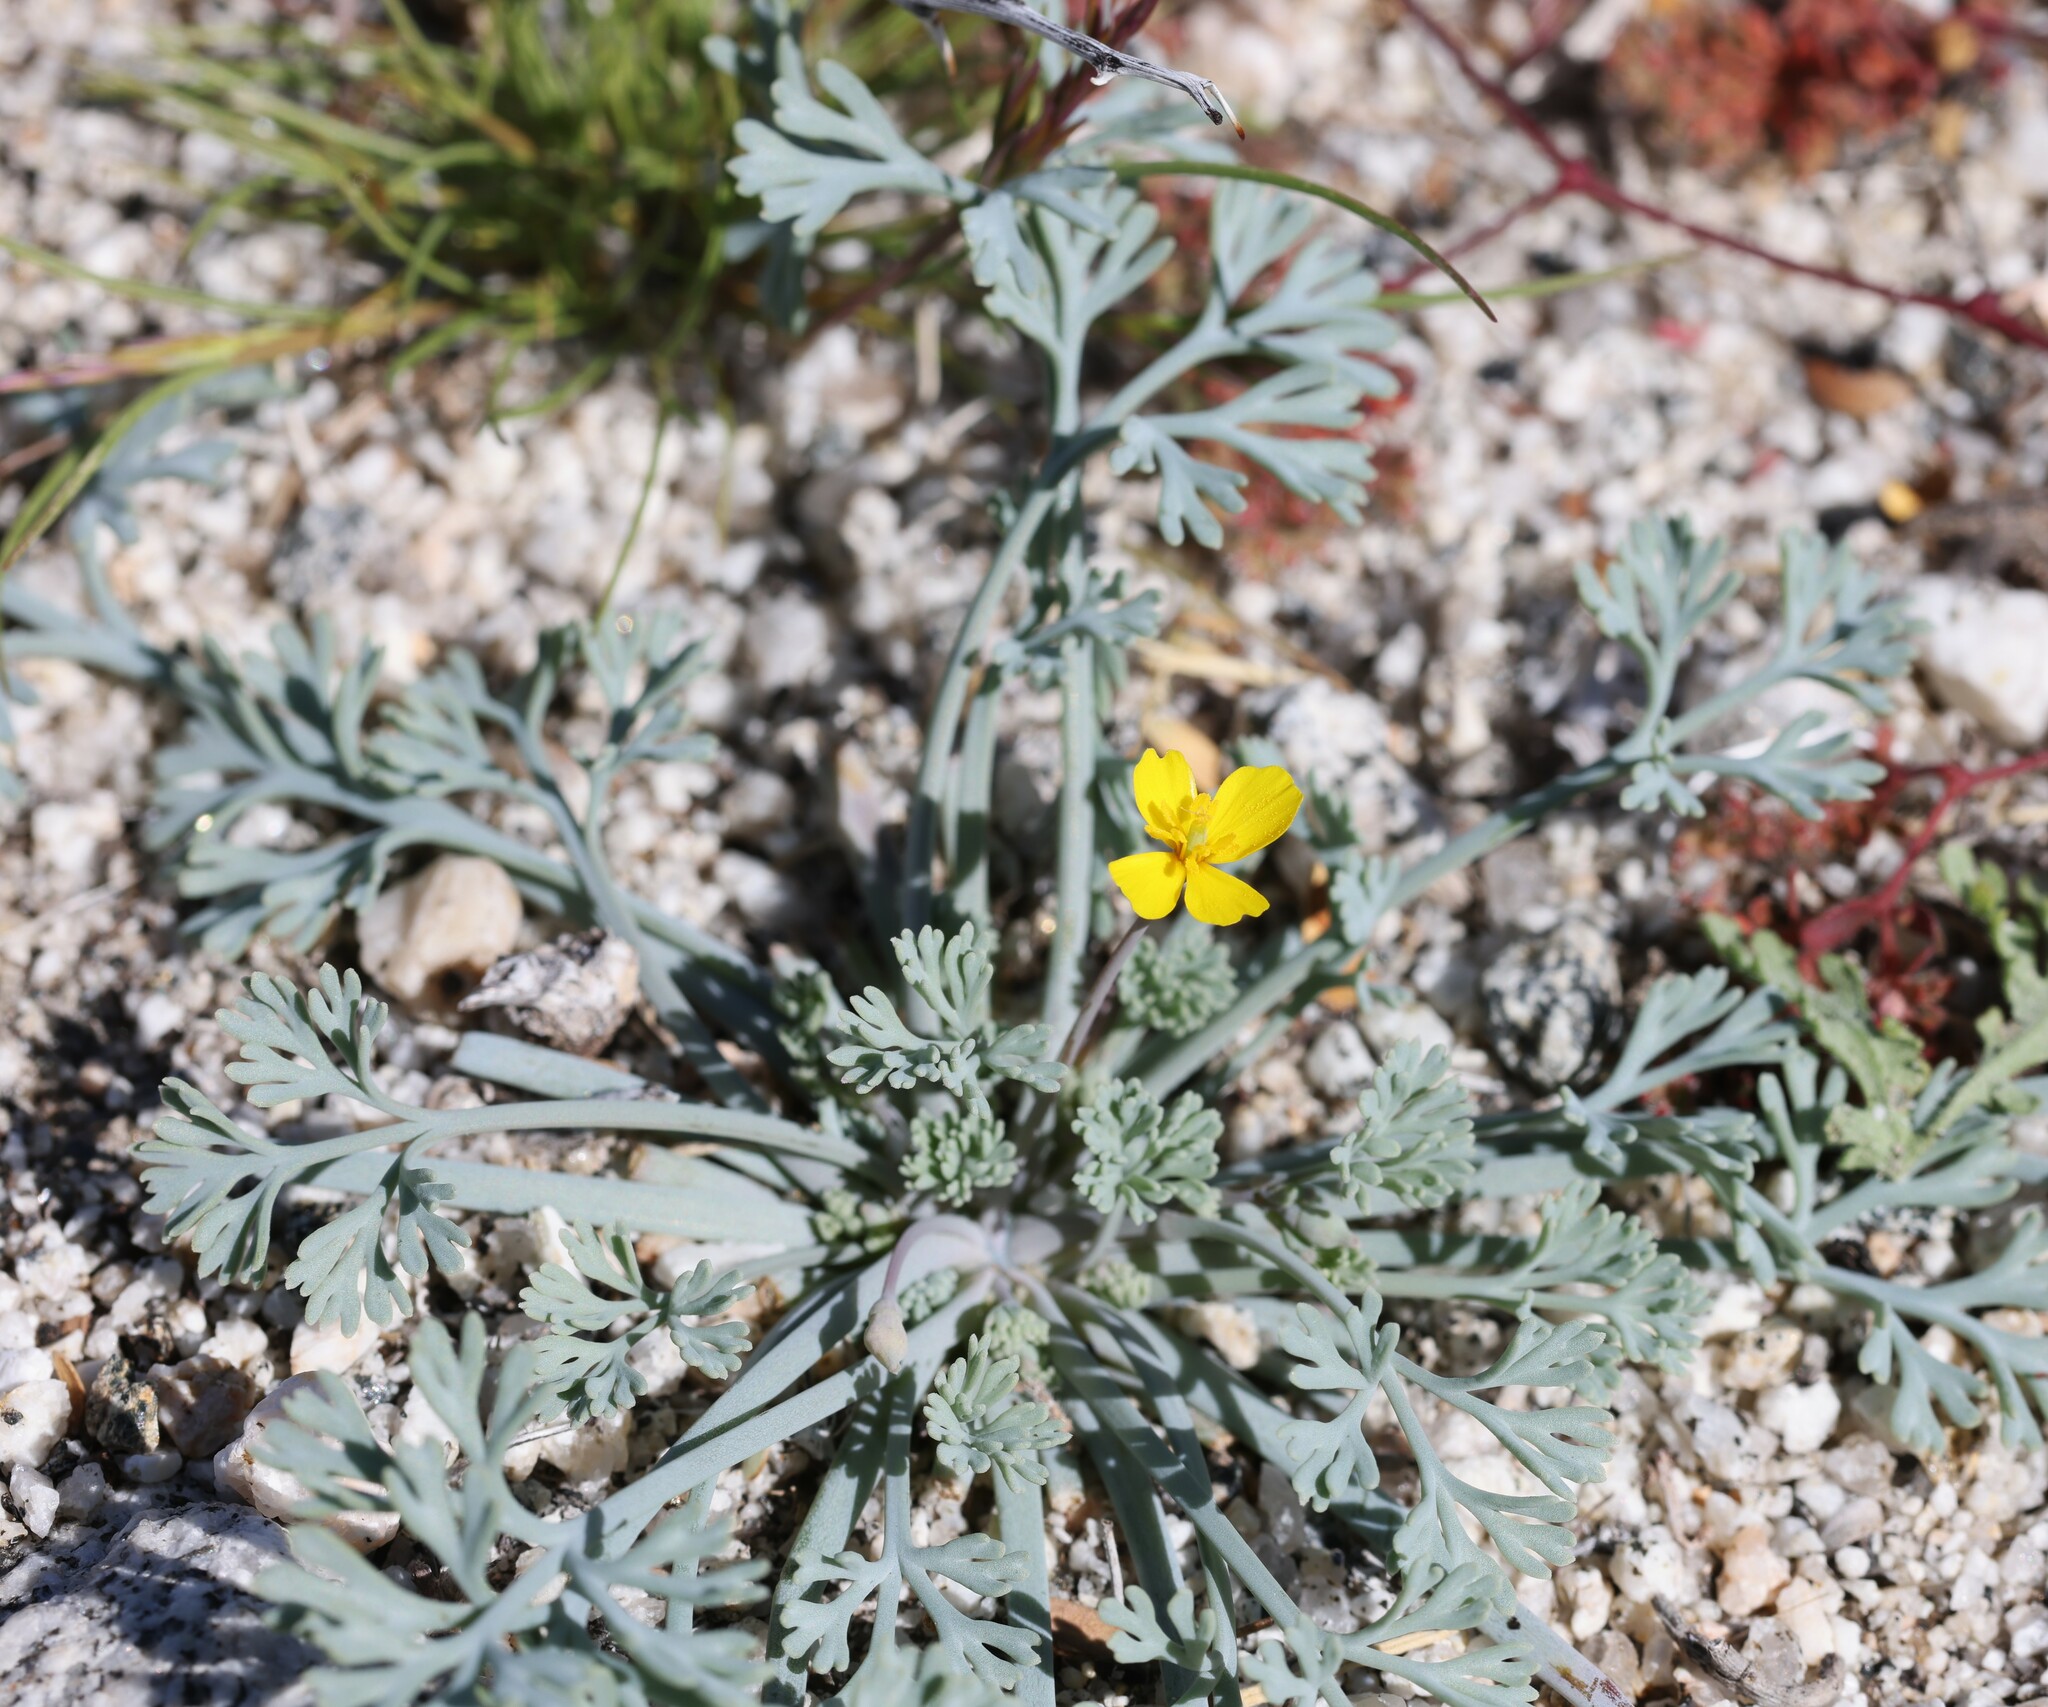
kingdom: Plantae
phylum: Tracheophyta
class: Magnoliopsida
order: Ranunculales
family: Papaveraceae
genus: Eschscholzia
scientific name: Eschscholzia minutiflora
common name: Small-flower california-poppy
